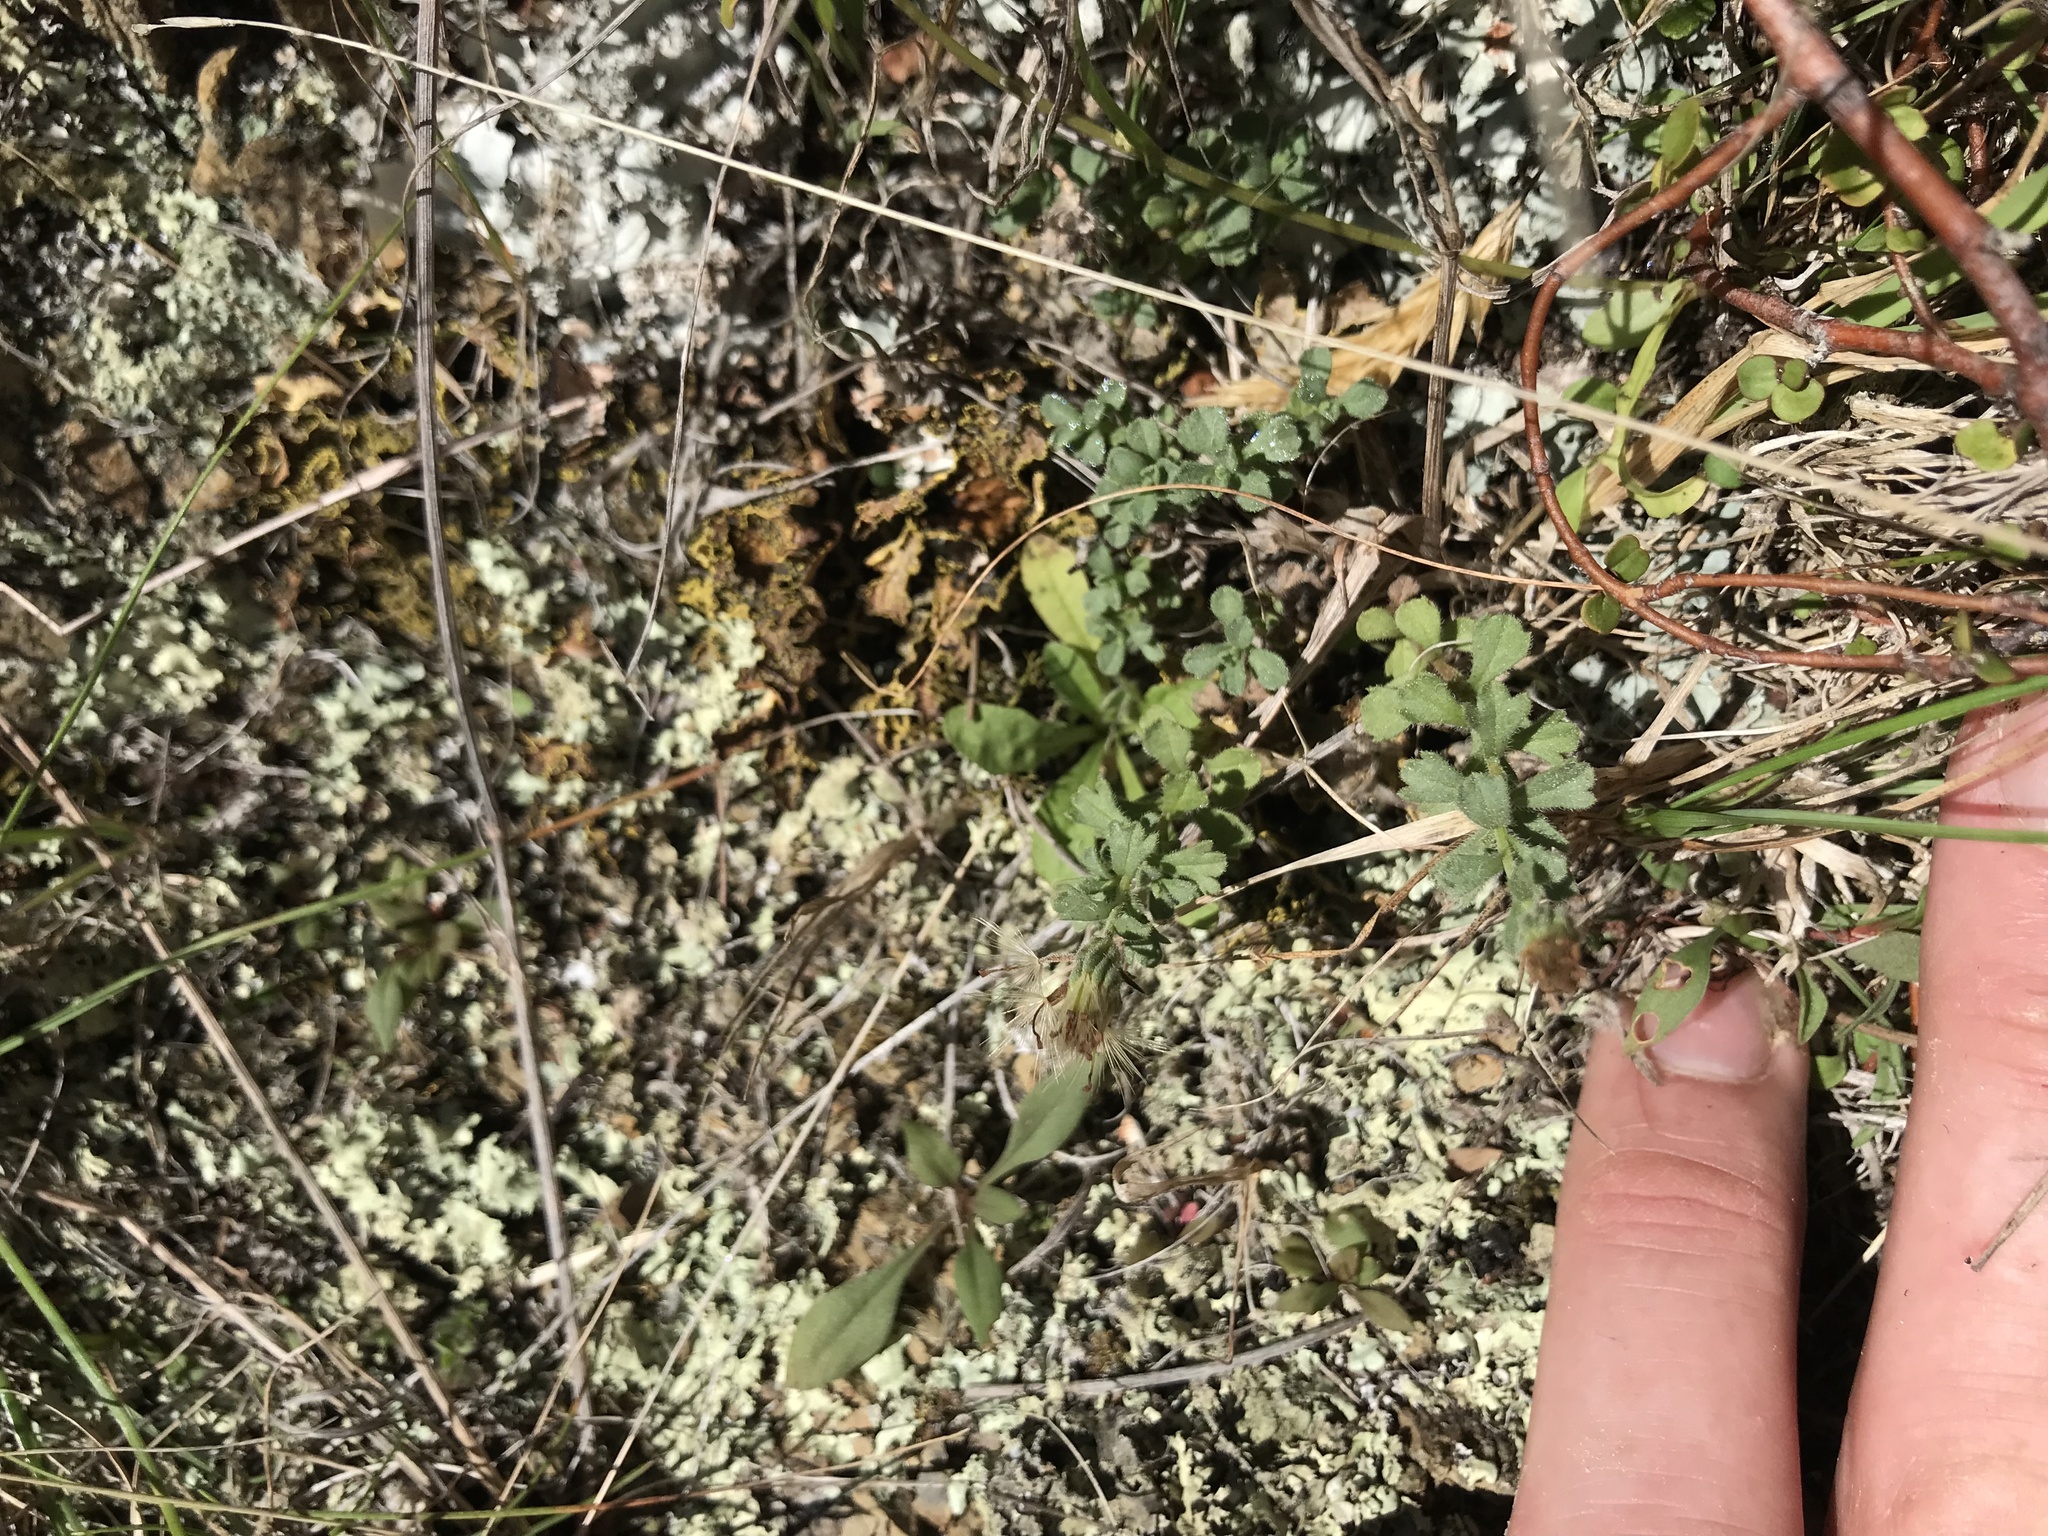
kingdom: Plantae
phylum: Tracheophyta
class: Magnoliopsida
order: Asterales
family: Asteraceae
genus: Vittadinia
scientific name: Vittadinia australis
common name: White fuzzweed
